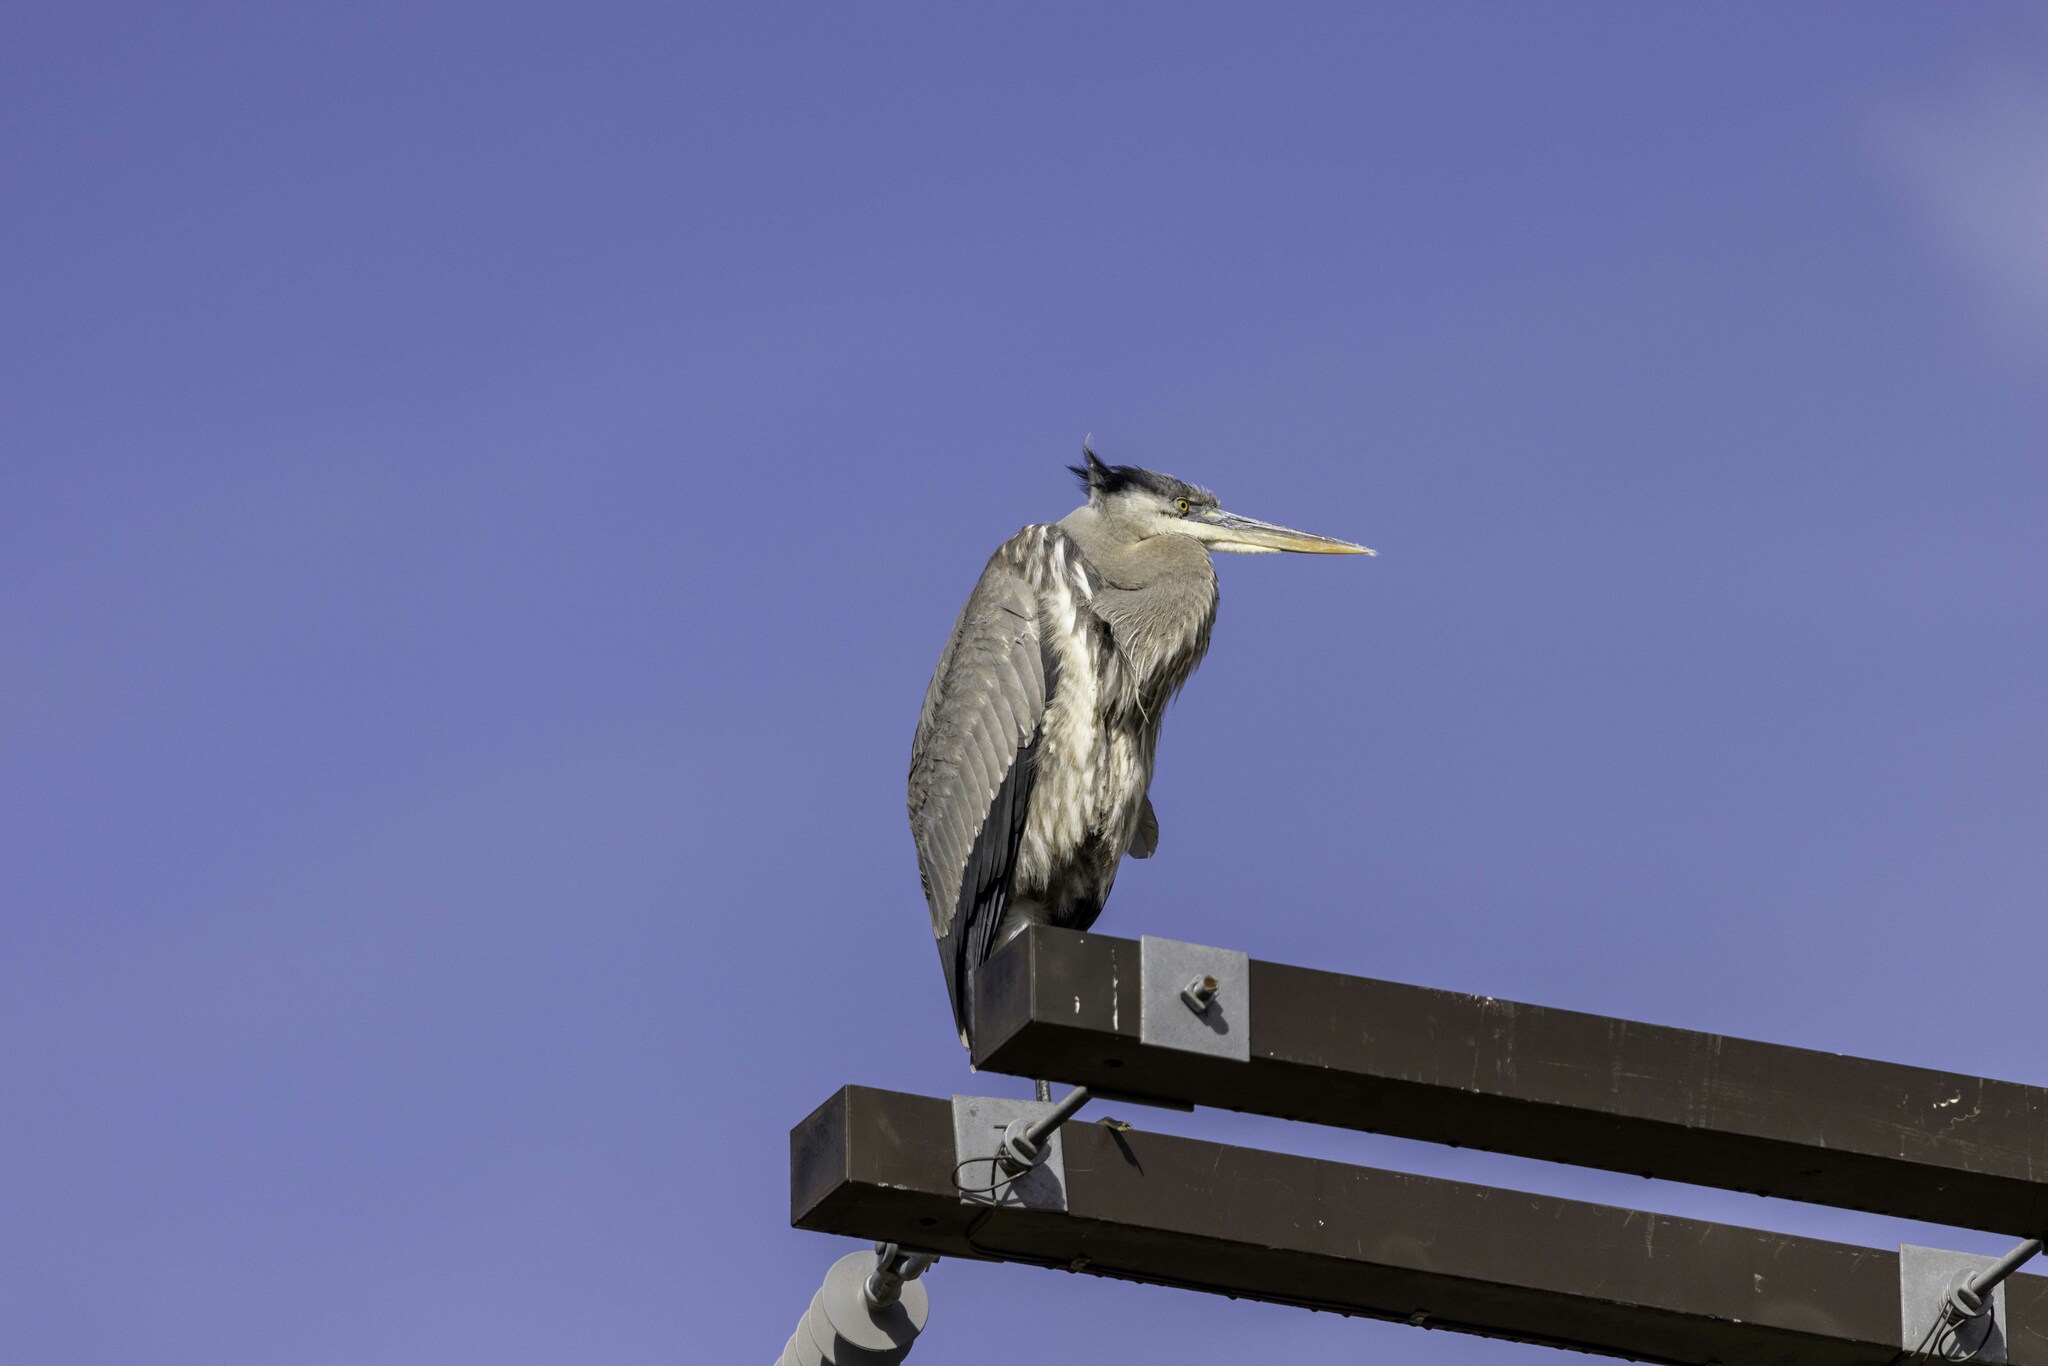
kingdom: Animalia
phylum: Chordata
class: Aves
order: Pelecaniformes
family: Ardeidae
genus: Ardea
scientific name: Ardea herodias
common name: Great blue heron
